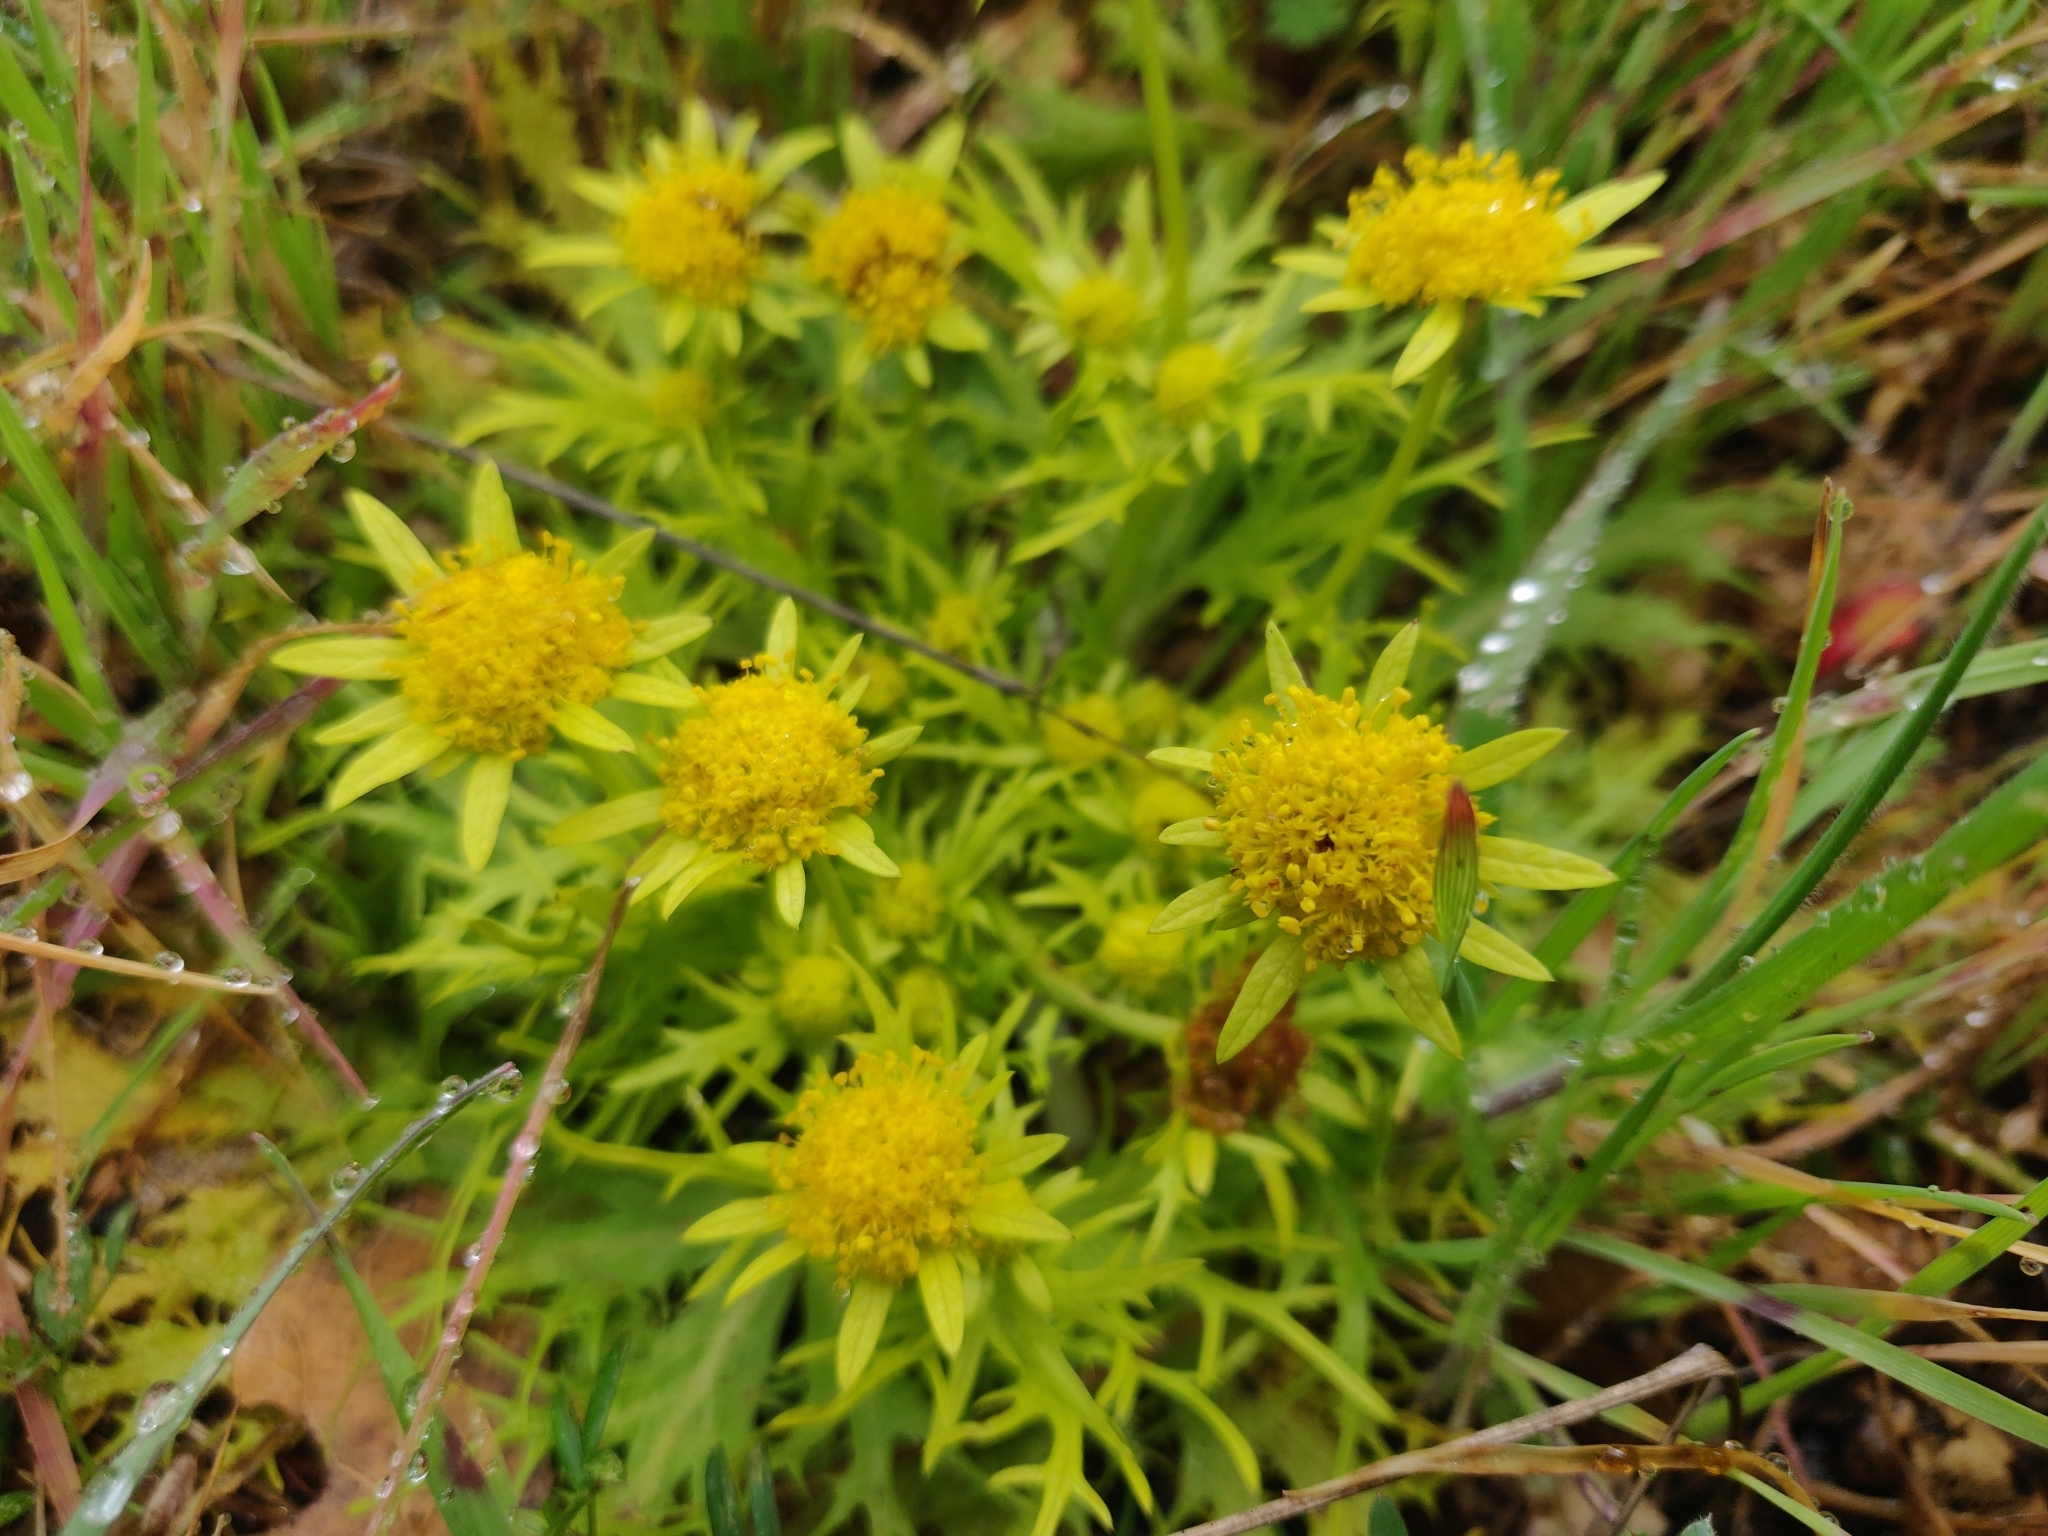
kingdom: Plantae
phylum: Tracheophyta
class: Magnoliopsida
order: Apiales
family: Apiaceae
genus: Sanicula
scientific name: Sanicula arctopoides
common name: Footsteps-of-spring
